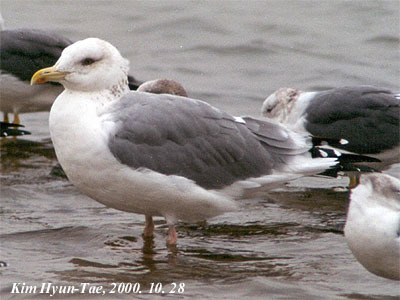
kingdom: Animalia
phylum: Chordata
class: Aves
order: Charadriiformes
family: Laridae
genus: Larus
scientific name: Larus vegae
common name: Vega gull
